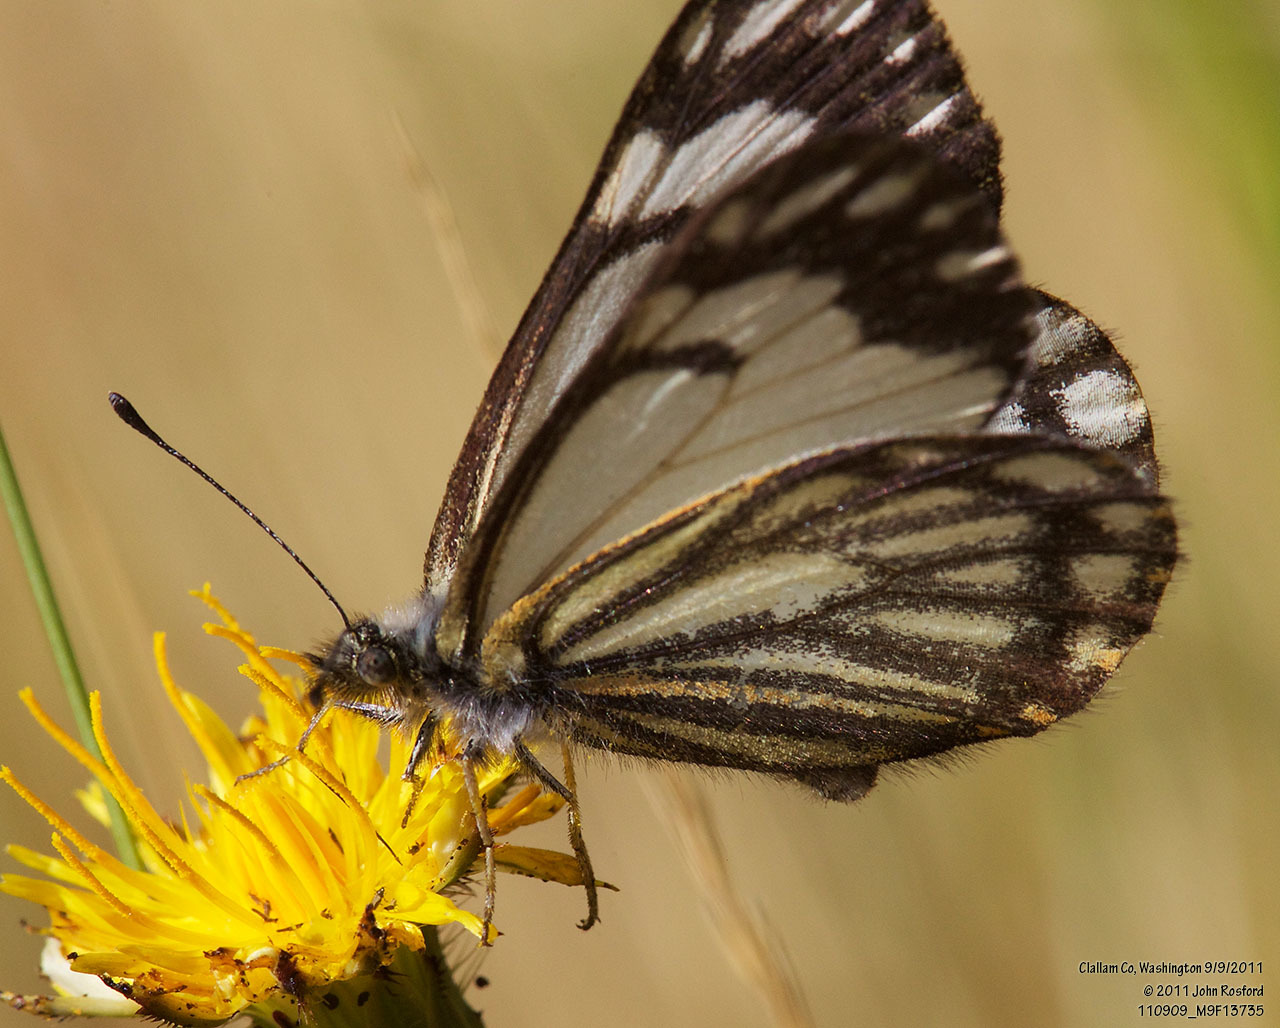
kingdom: Animalia
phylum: Arthropoda
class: Insecta
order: Lepidoptera
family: Pieridae
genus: Neophasia
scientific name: Neophasia menapia
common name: Pine white
